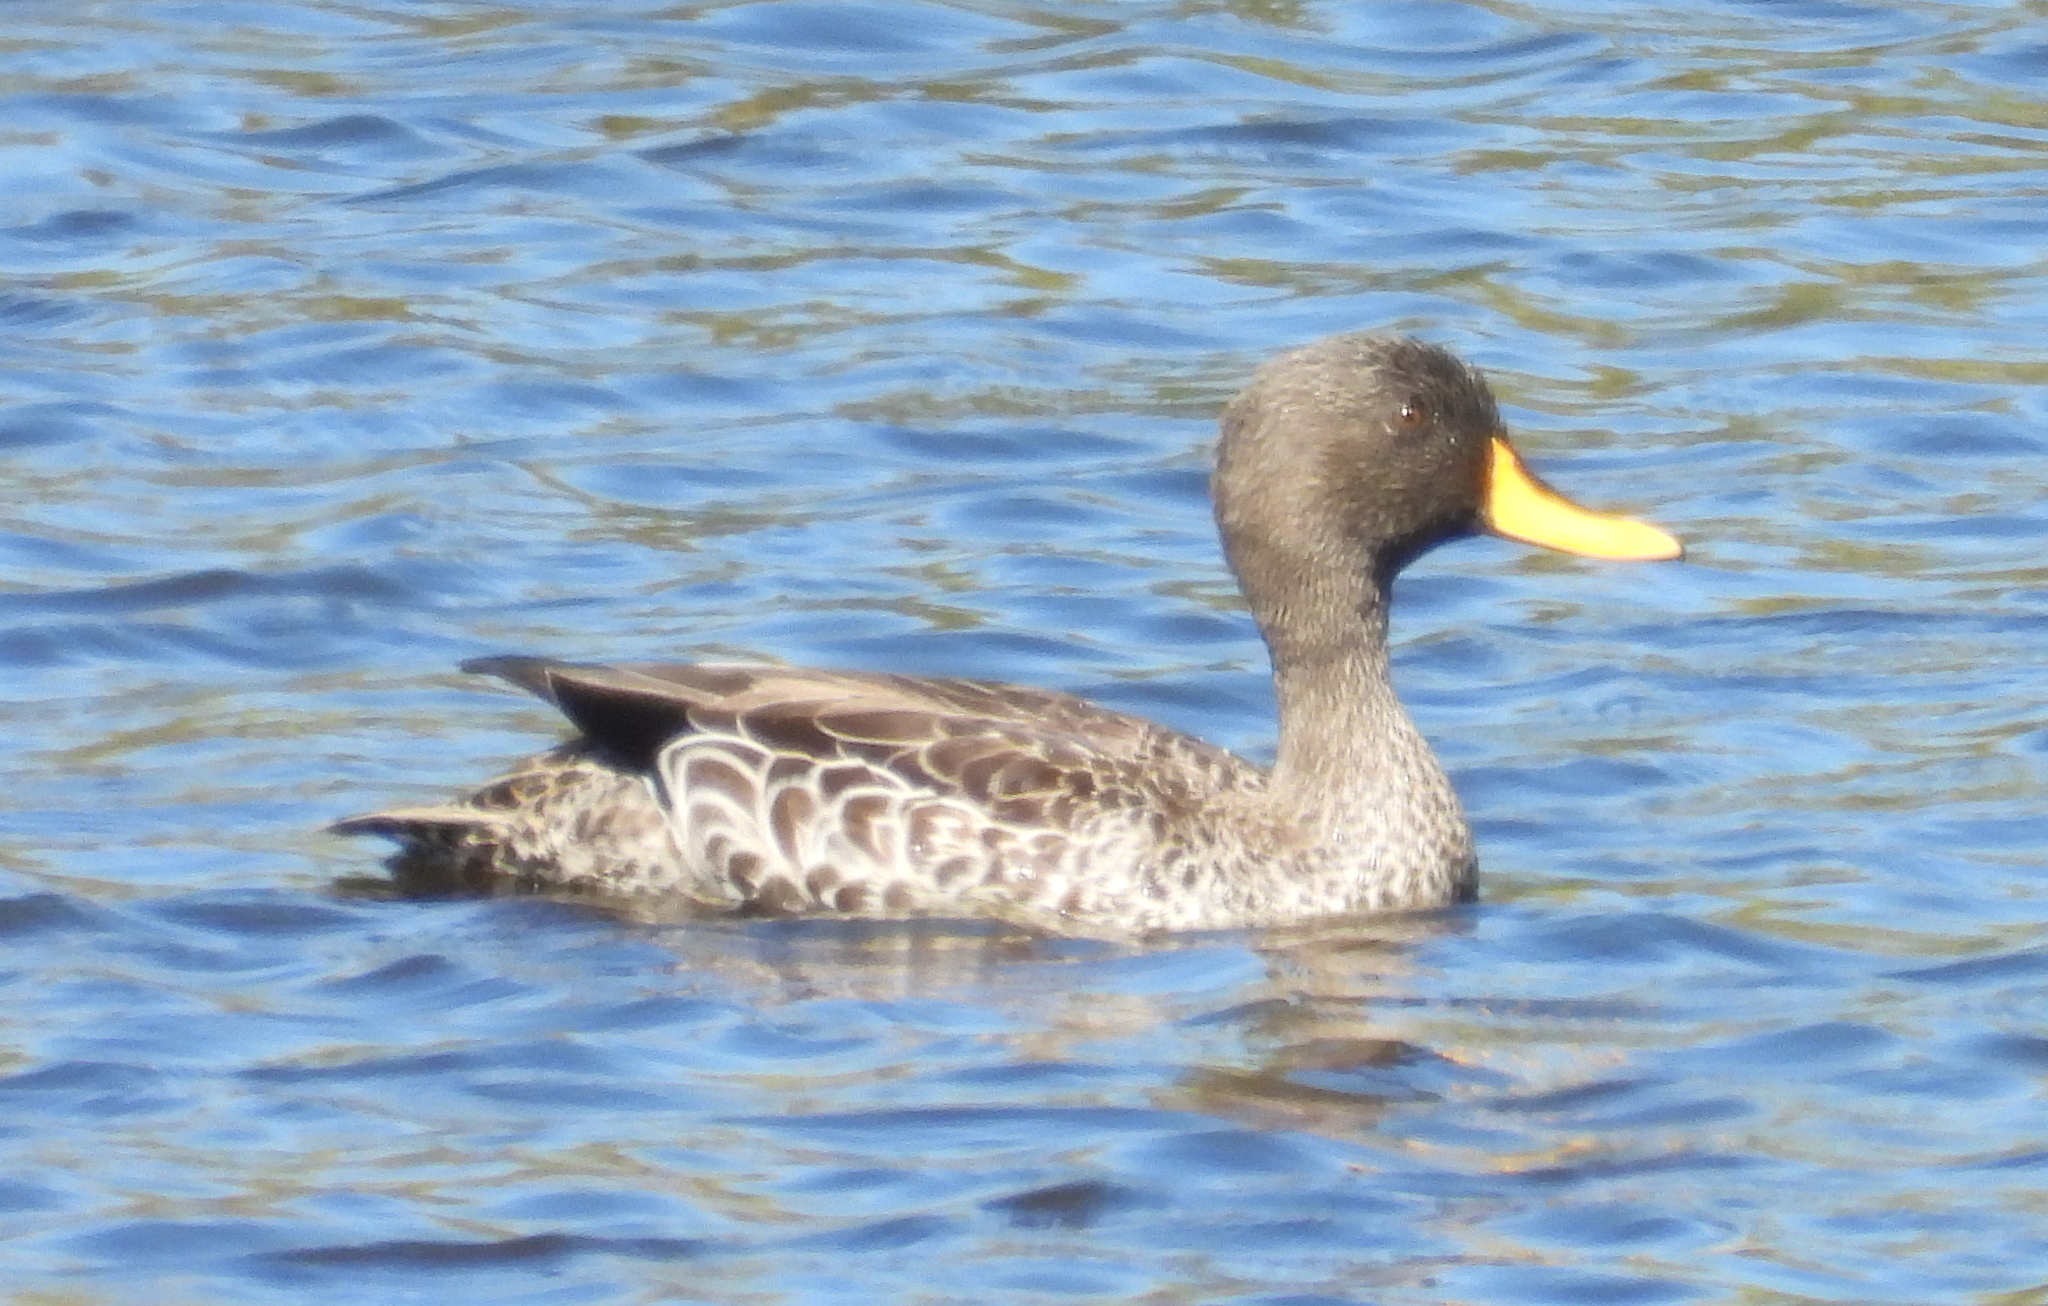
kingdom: Animalia
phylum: Chordata
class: Aves
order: Anseriformes
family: Anatidae
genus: Anas
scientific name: Anas undulata
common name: Yellow-billed duck
